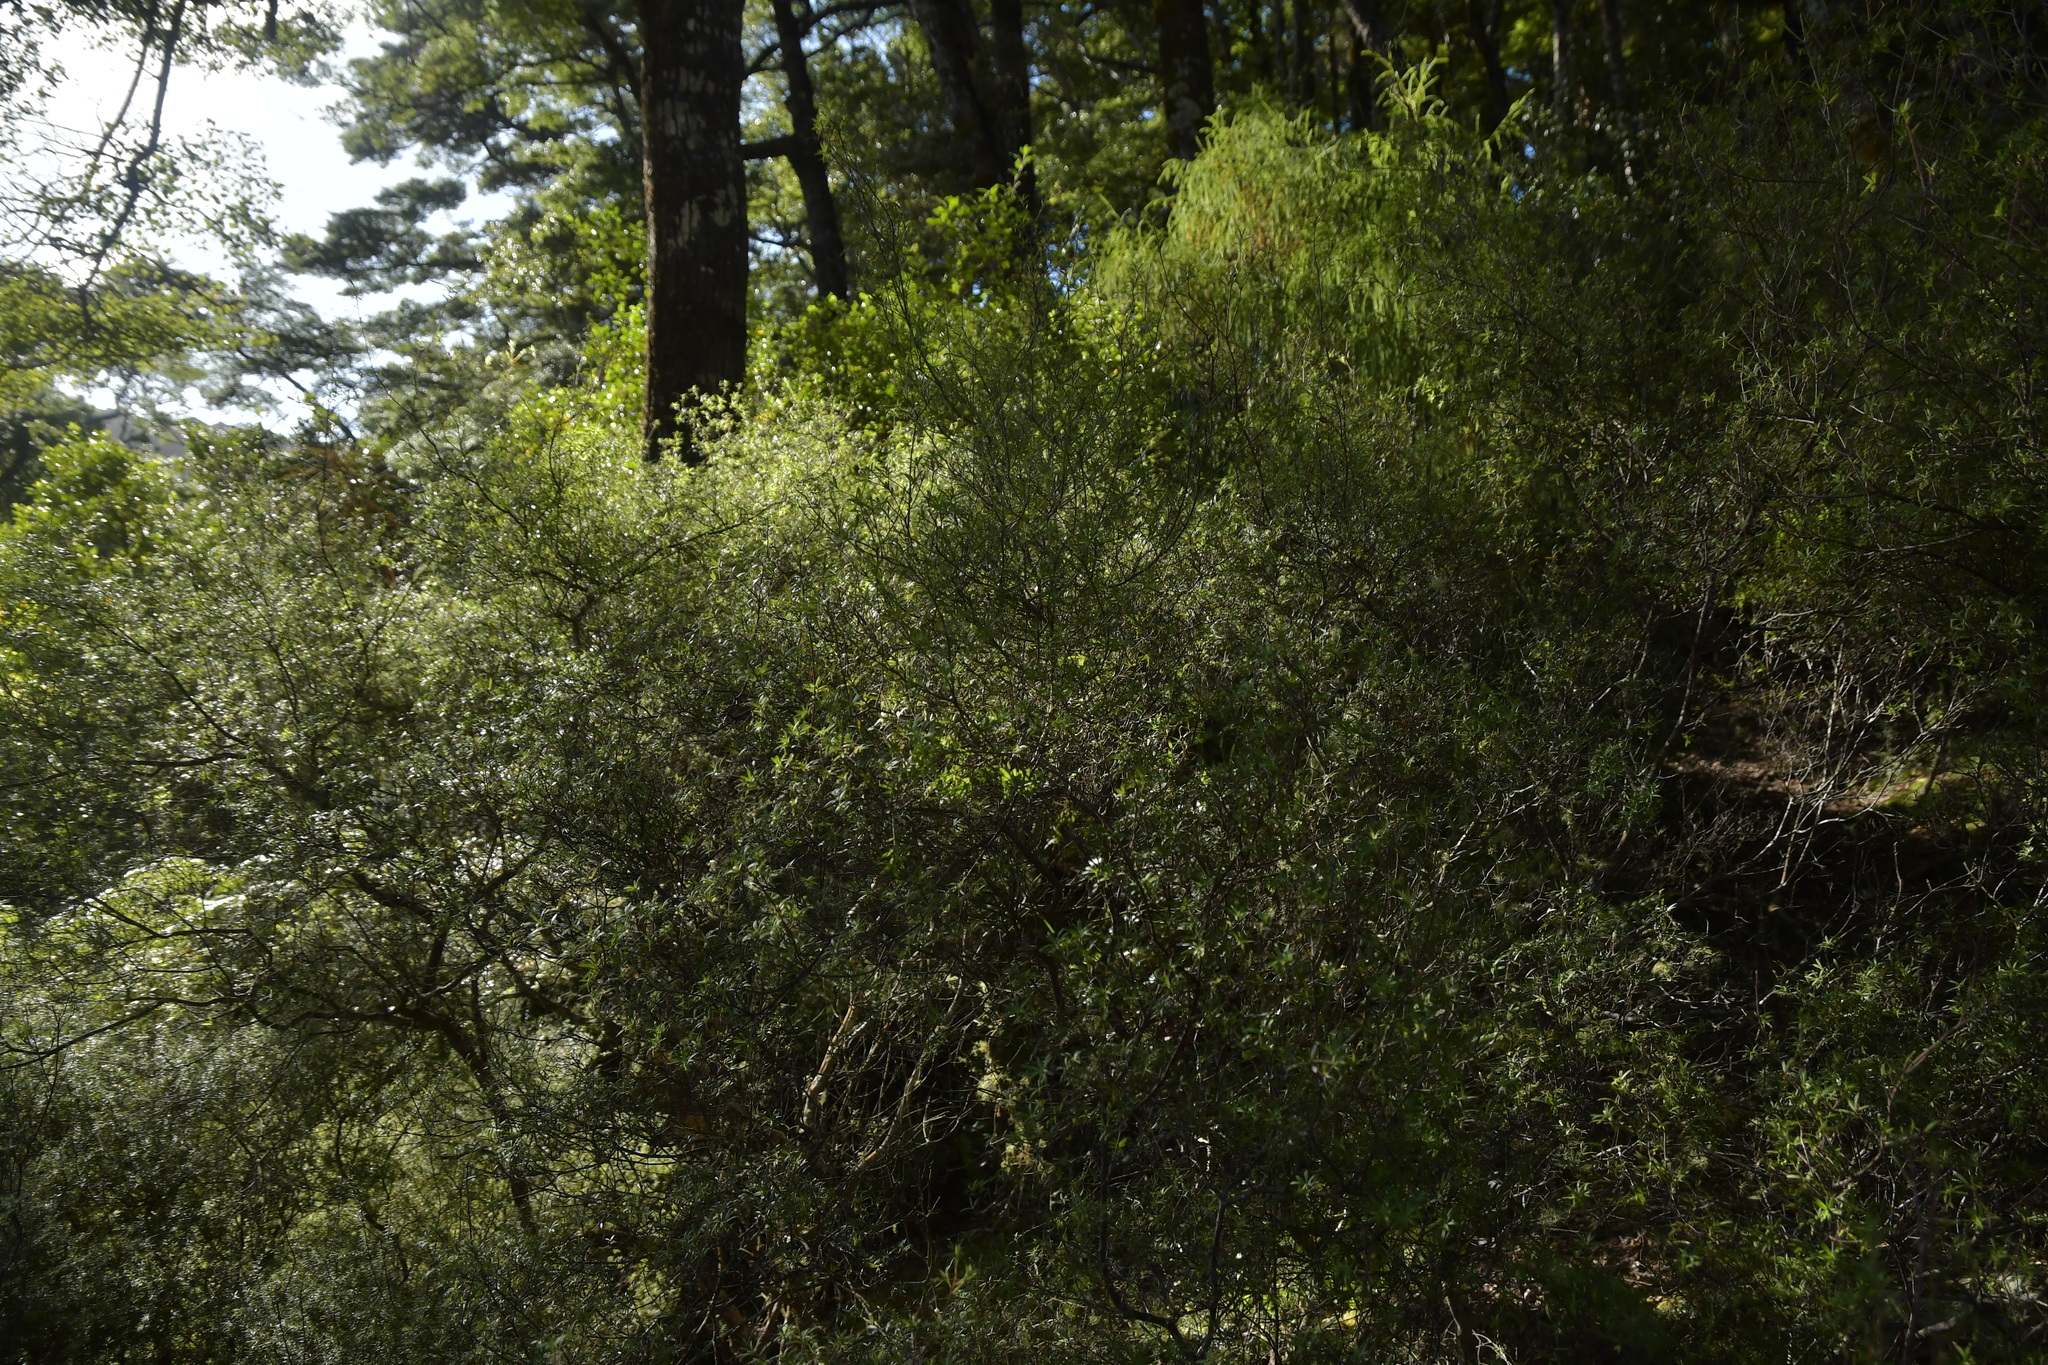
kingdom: Plantae
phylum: Tracheophyta
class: Magnoliopsida
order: Ericales
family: Ericaceae
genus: Leptecophylla
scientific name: Leptecophylla juniperina
